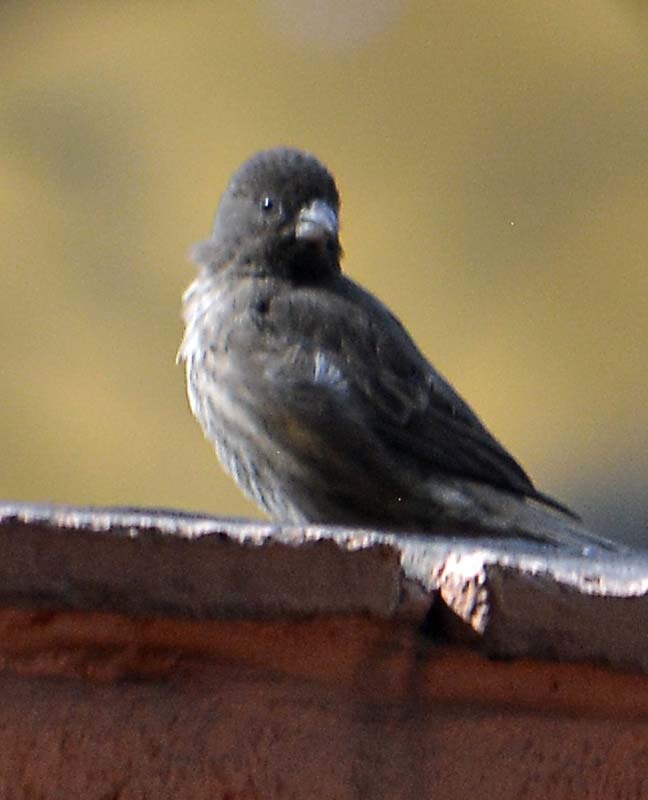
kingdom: Animalia
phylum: Chordata
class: Aves
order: Passeriformes
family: Fringillidae
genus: Haemorhous
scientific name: Haemorhous mexicanus
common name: House finch
